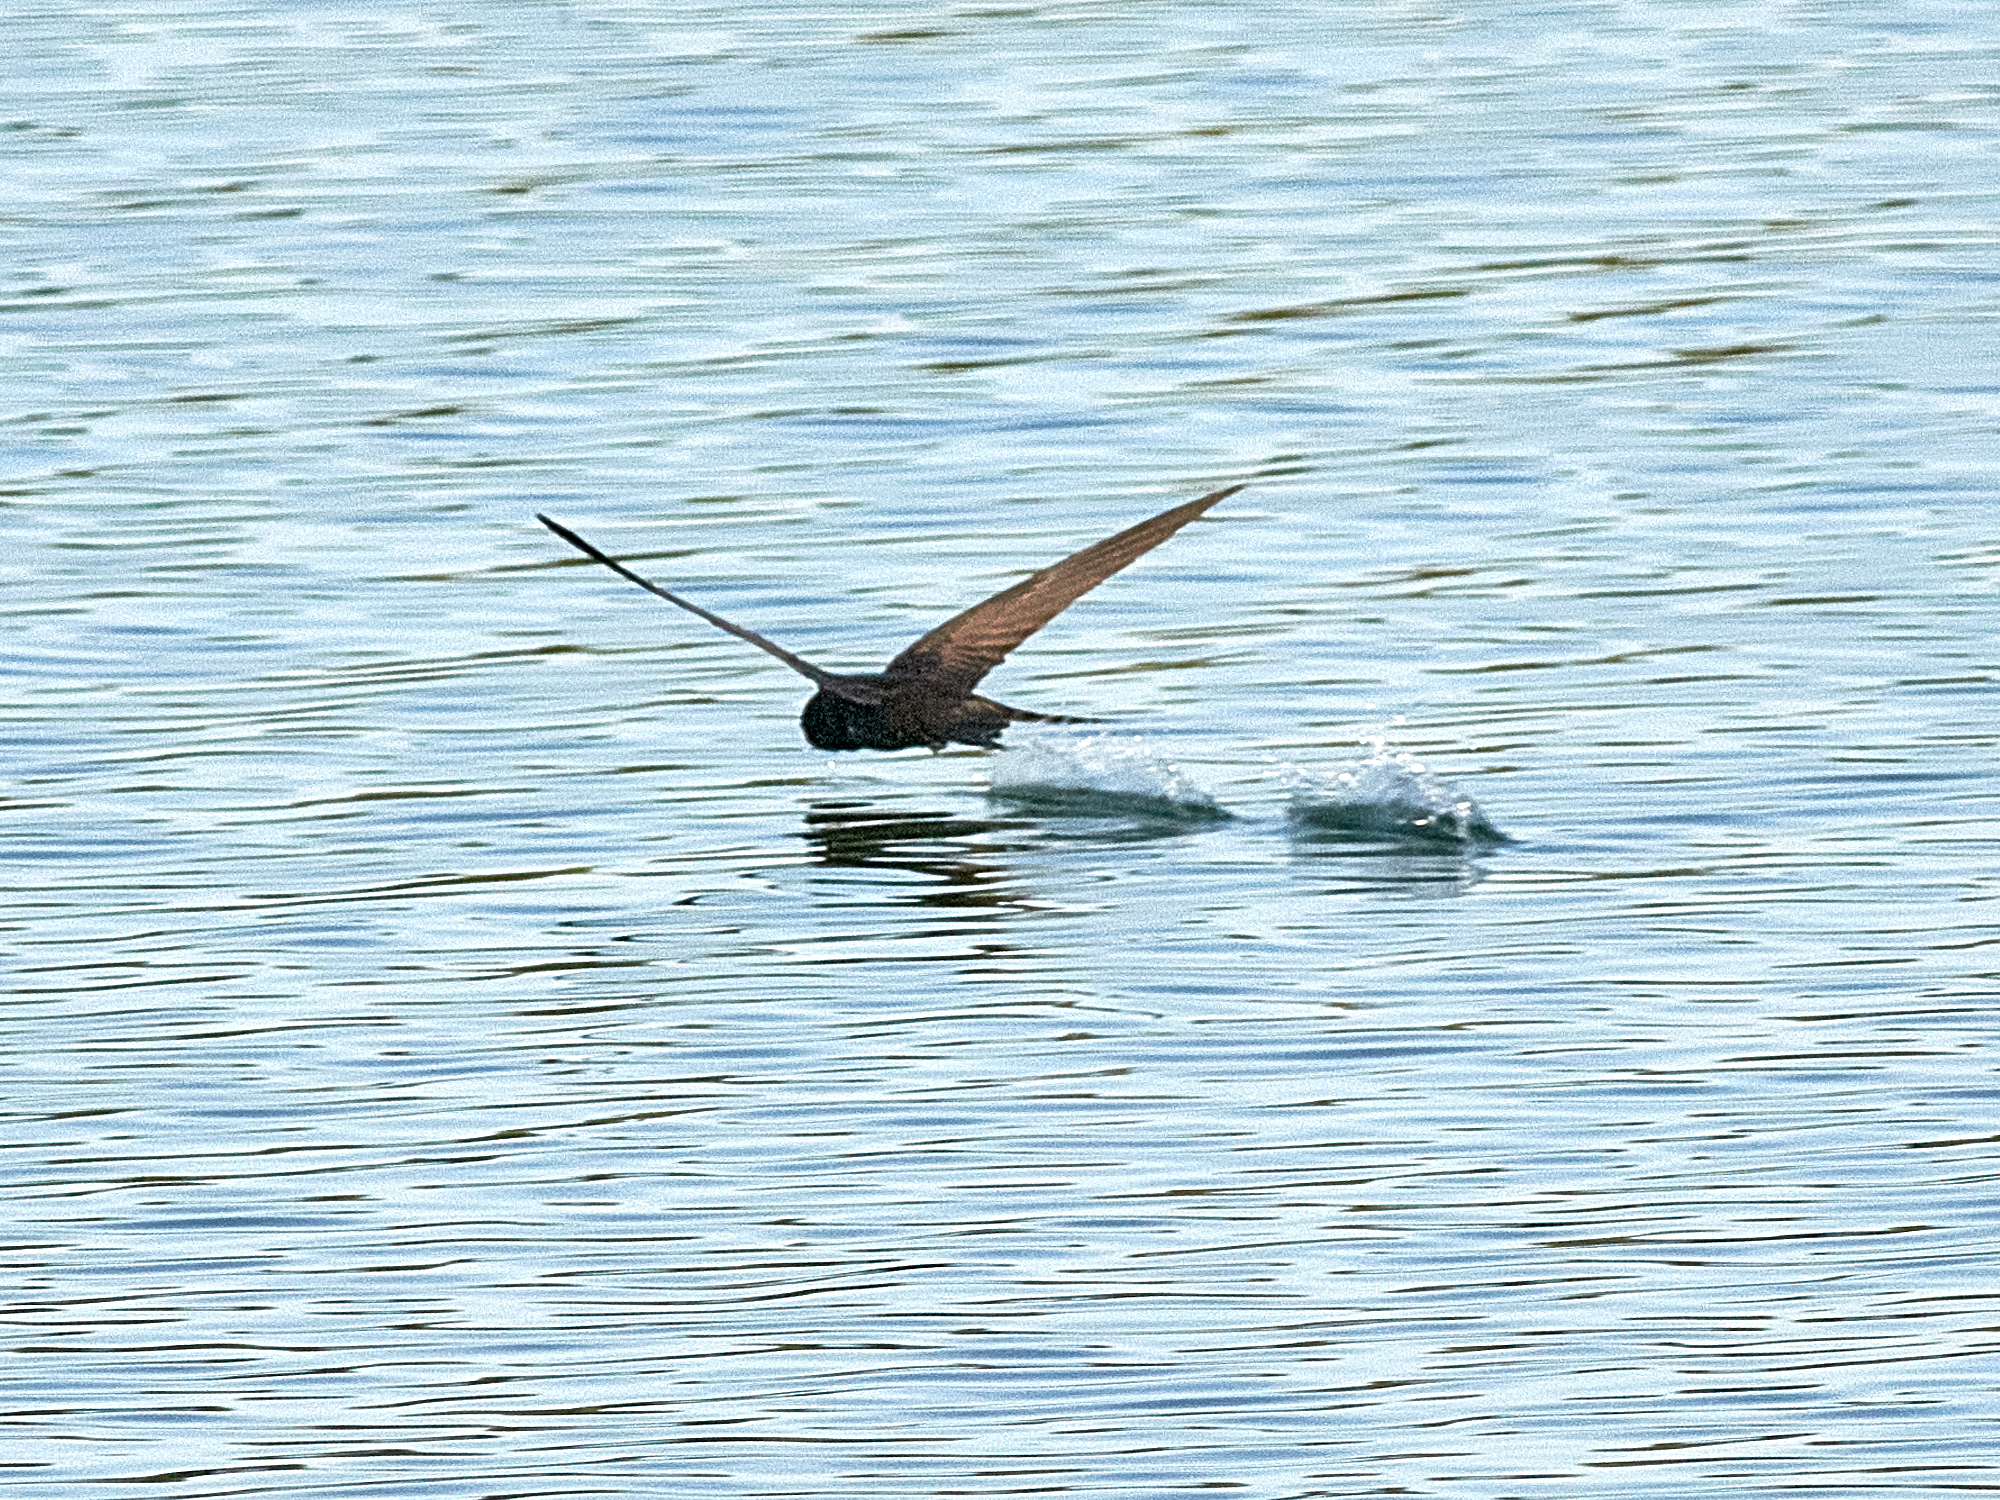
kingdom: Animalia
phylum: Chordata
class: Aves
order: Apodiformes
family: Apodidae
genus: Apus
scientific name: Apus apus
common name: Common swift
